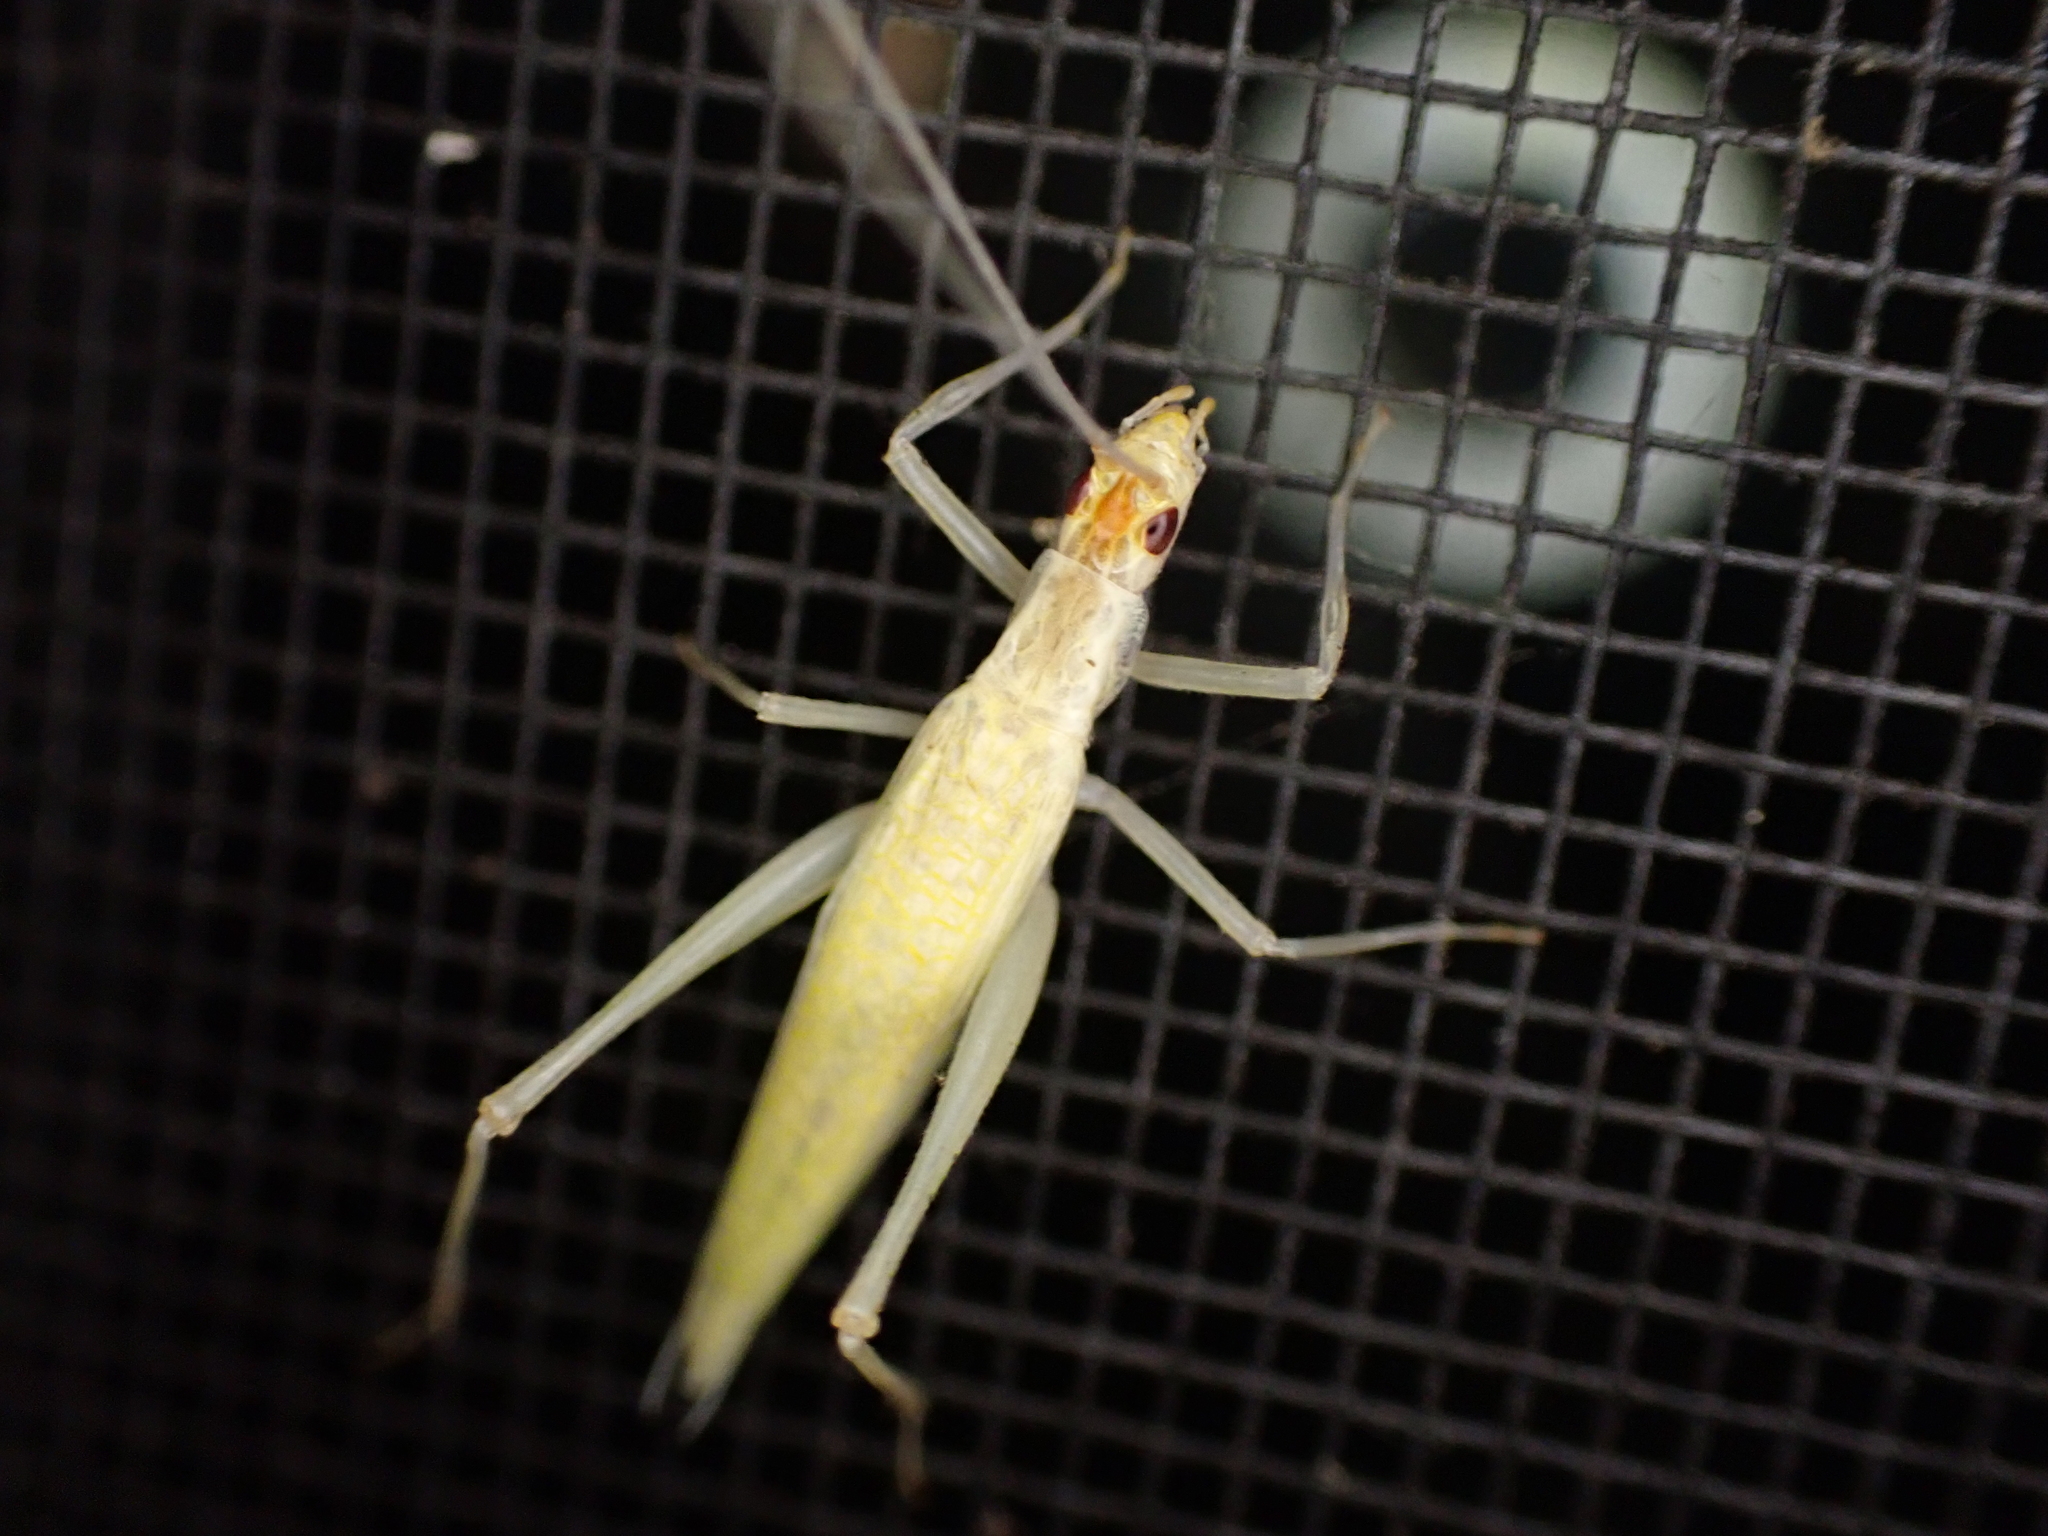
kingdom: Animalia
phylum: Arthropoda
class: Insecta
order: Orthoptera
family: Gryllidae
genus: Oecanthus
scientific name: Oecanthus niveus
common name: Narrow-winged tree cricket
